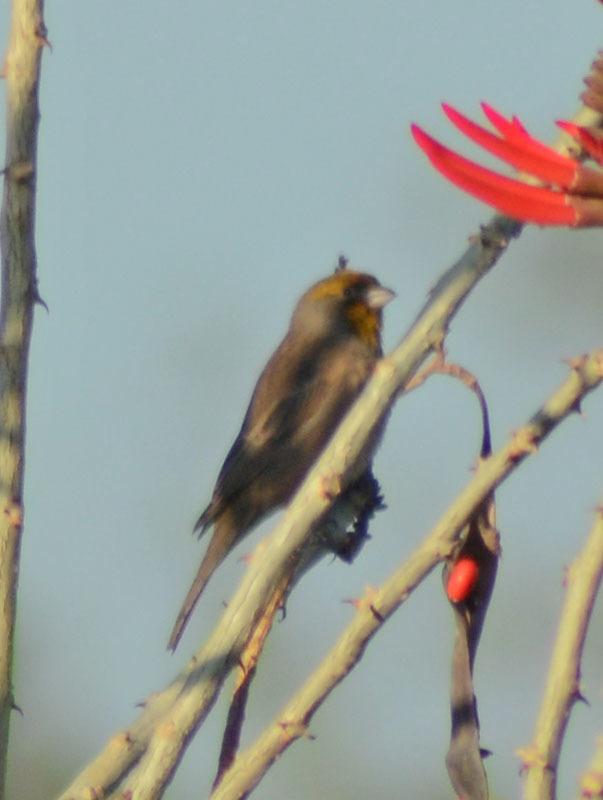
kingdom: Animalia
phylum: Chordata
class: Aves
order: Passeriformes
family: Fringillidae
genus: Haemorhous
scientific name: Haemorhous mexicanus
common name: House finch
